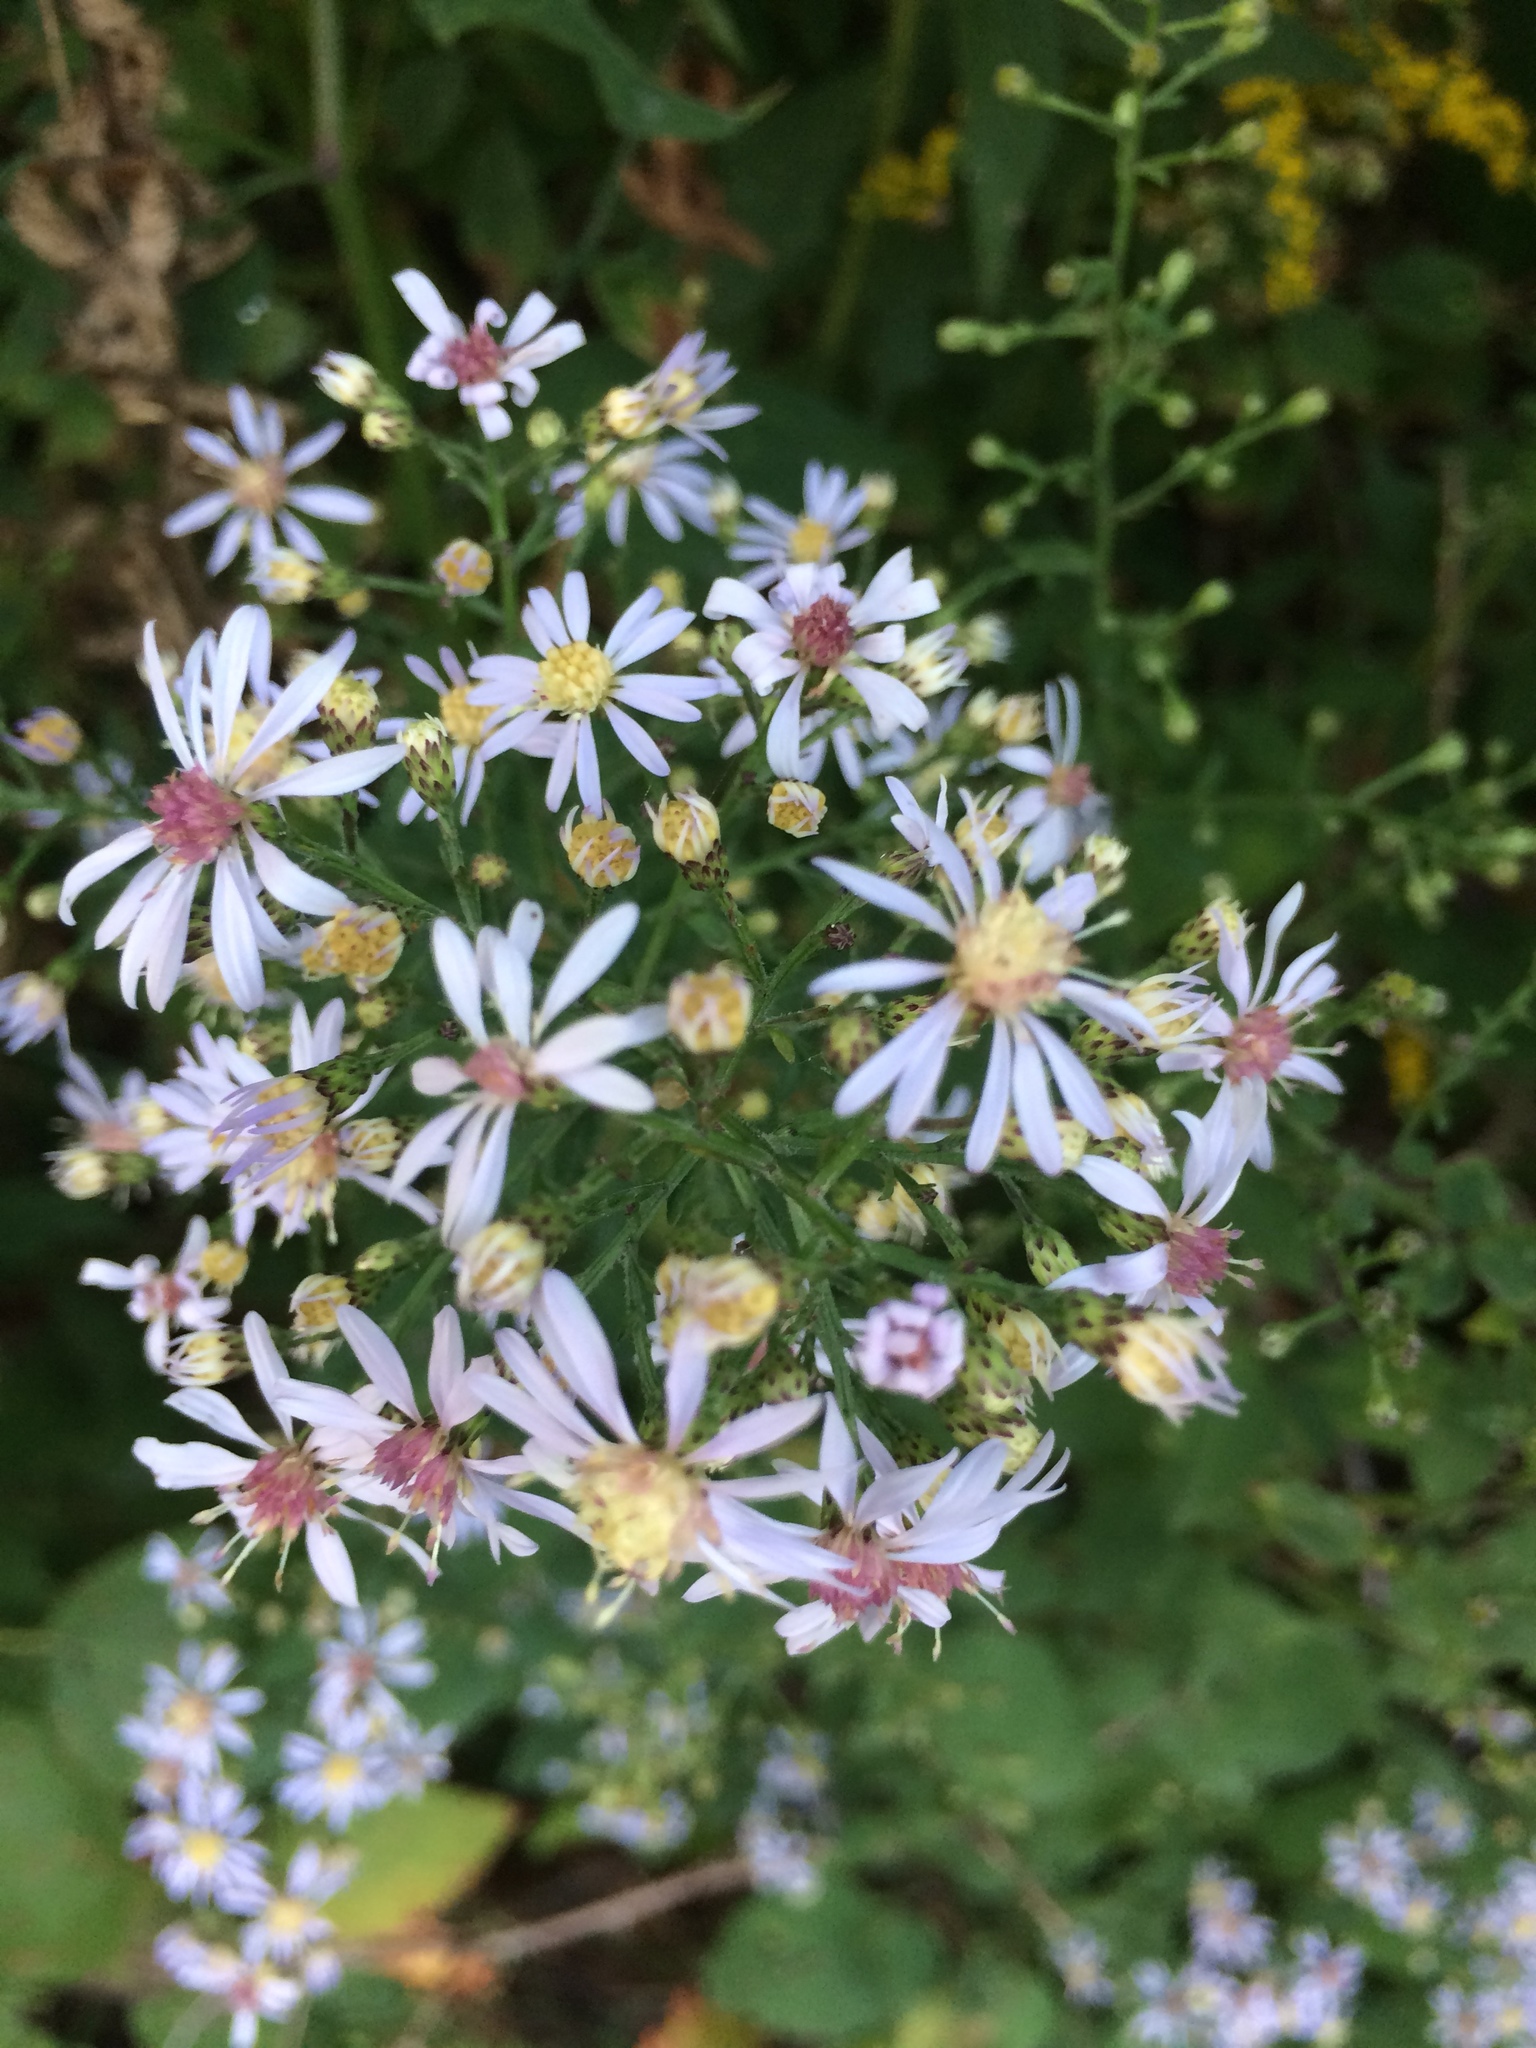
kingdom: Plantae
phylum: Tracheophyta
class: Magnoliopsida
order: Asterales
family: Asteraceae
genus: Symphyotrichum
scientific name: Symphyotrichum cordifolium
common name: Beeweed
